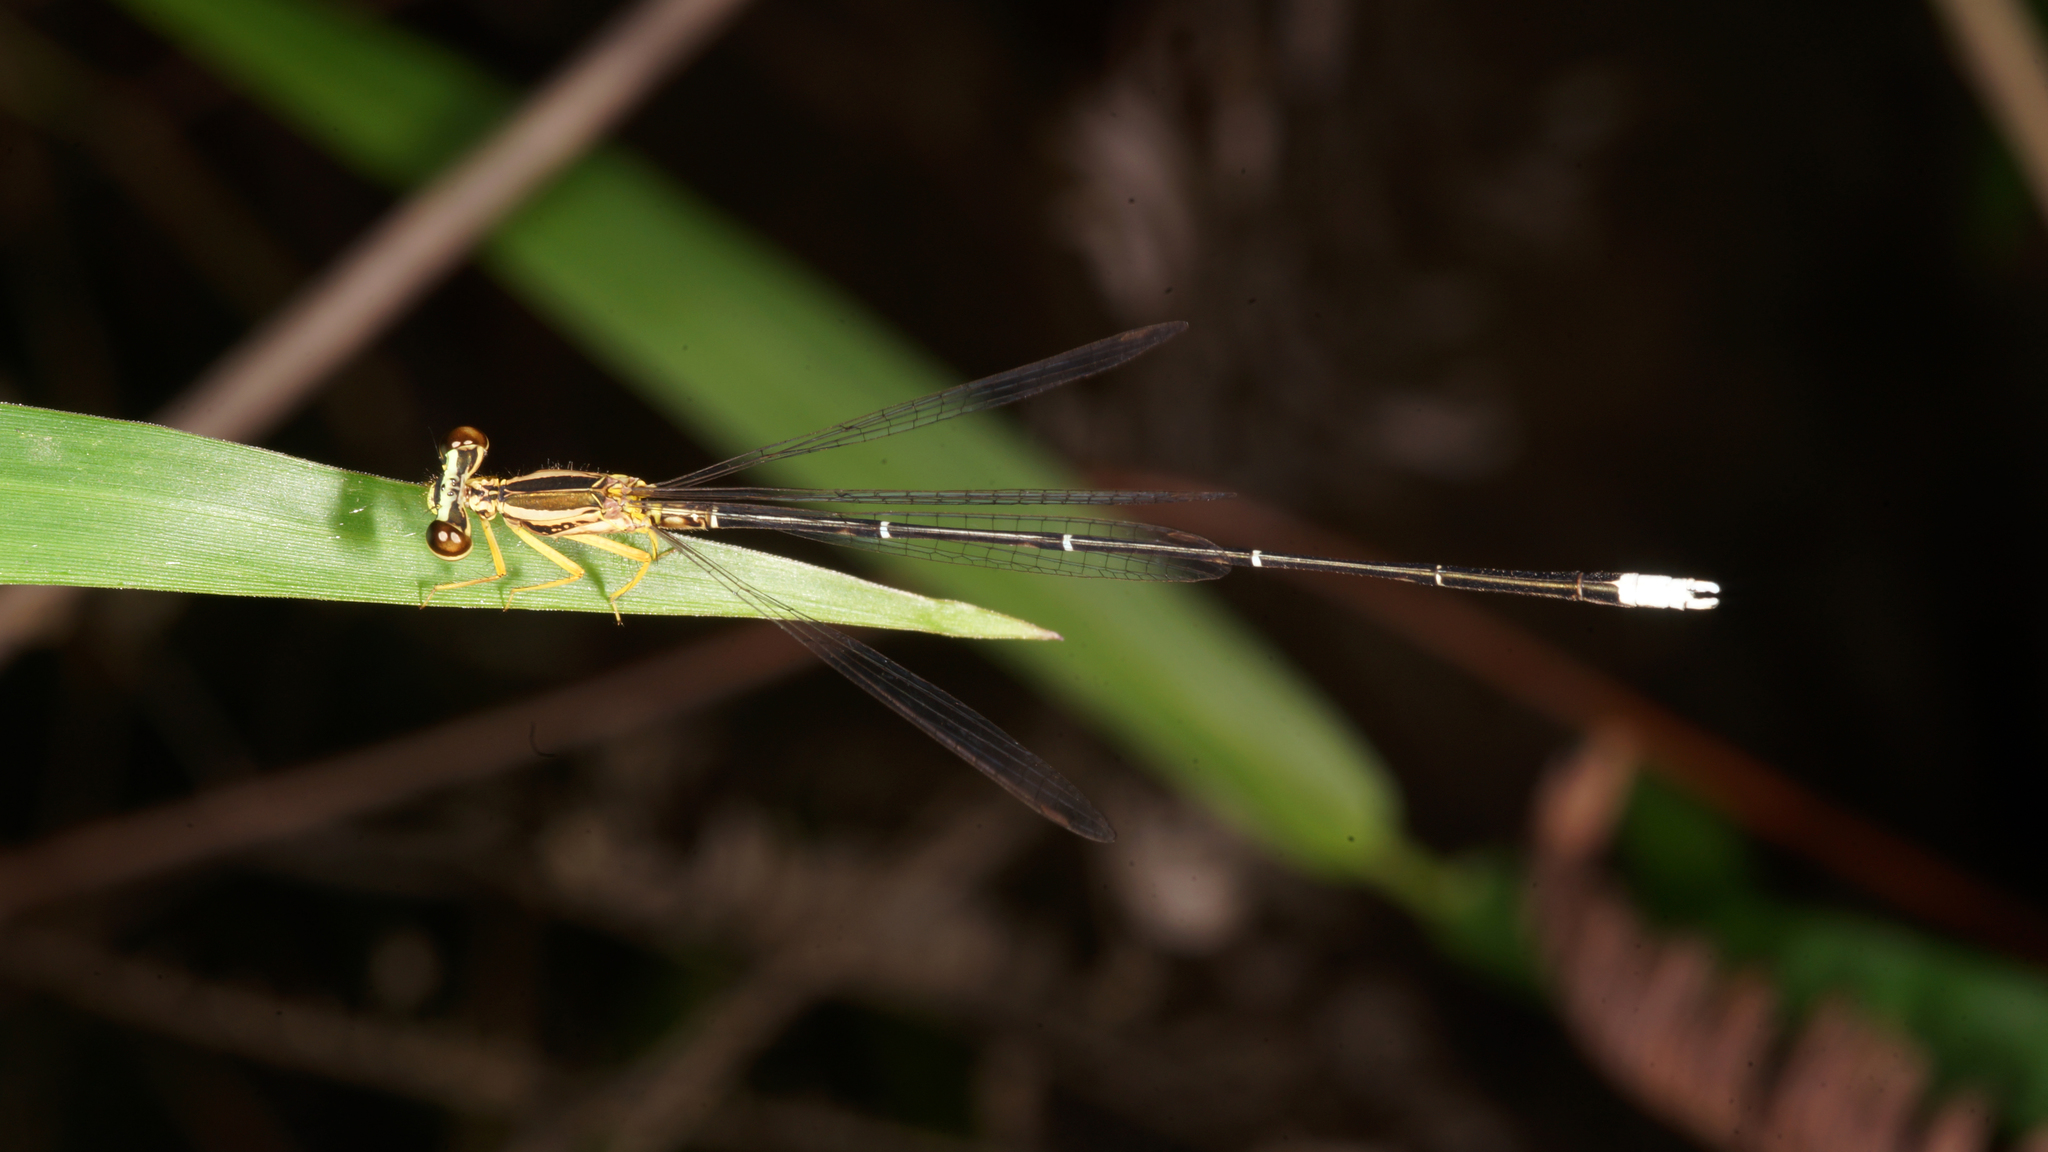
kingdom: Animalia
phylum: Arthropoda
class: Insecta
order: Odonata
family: Platycnemididae
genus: Copera
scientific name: Copera marginipes
